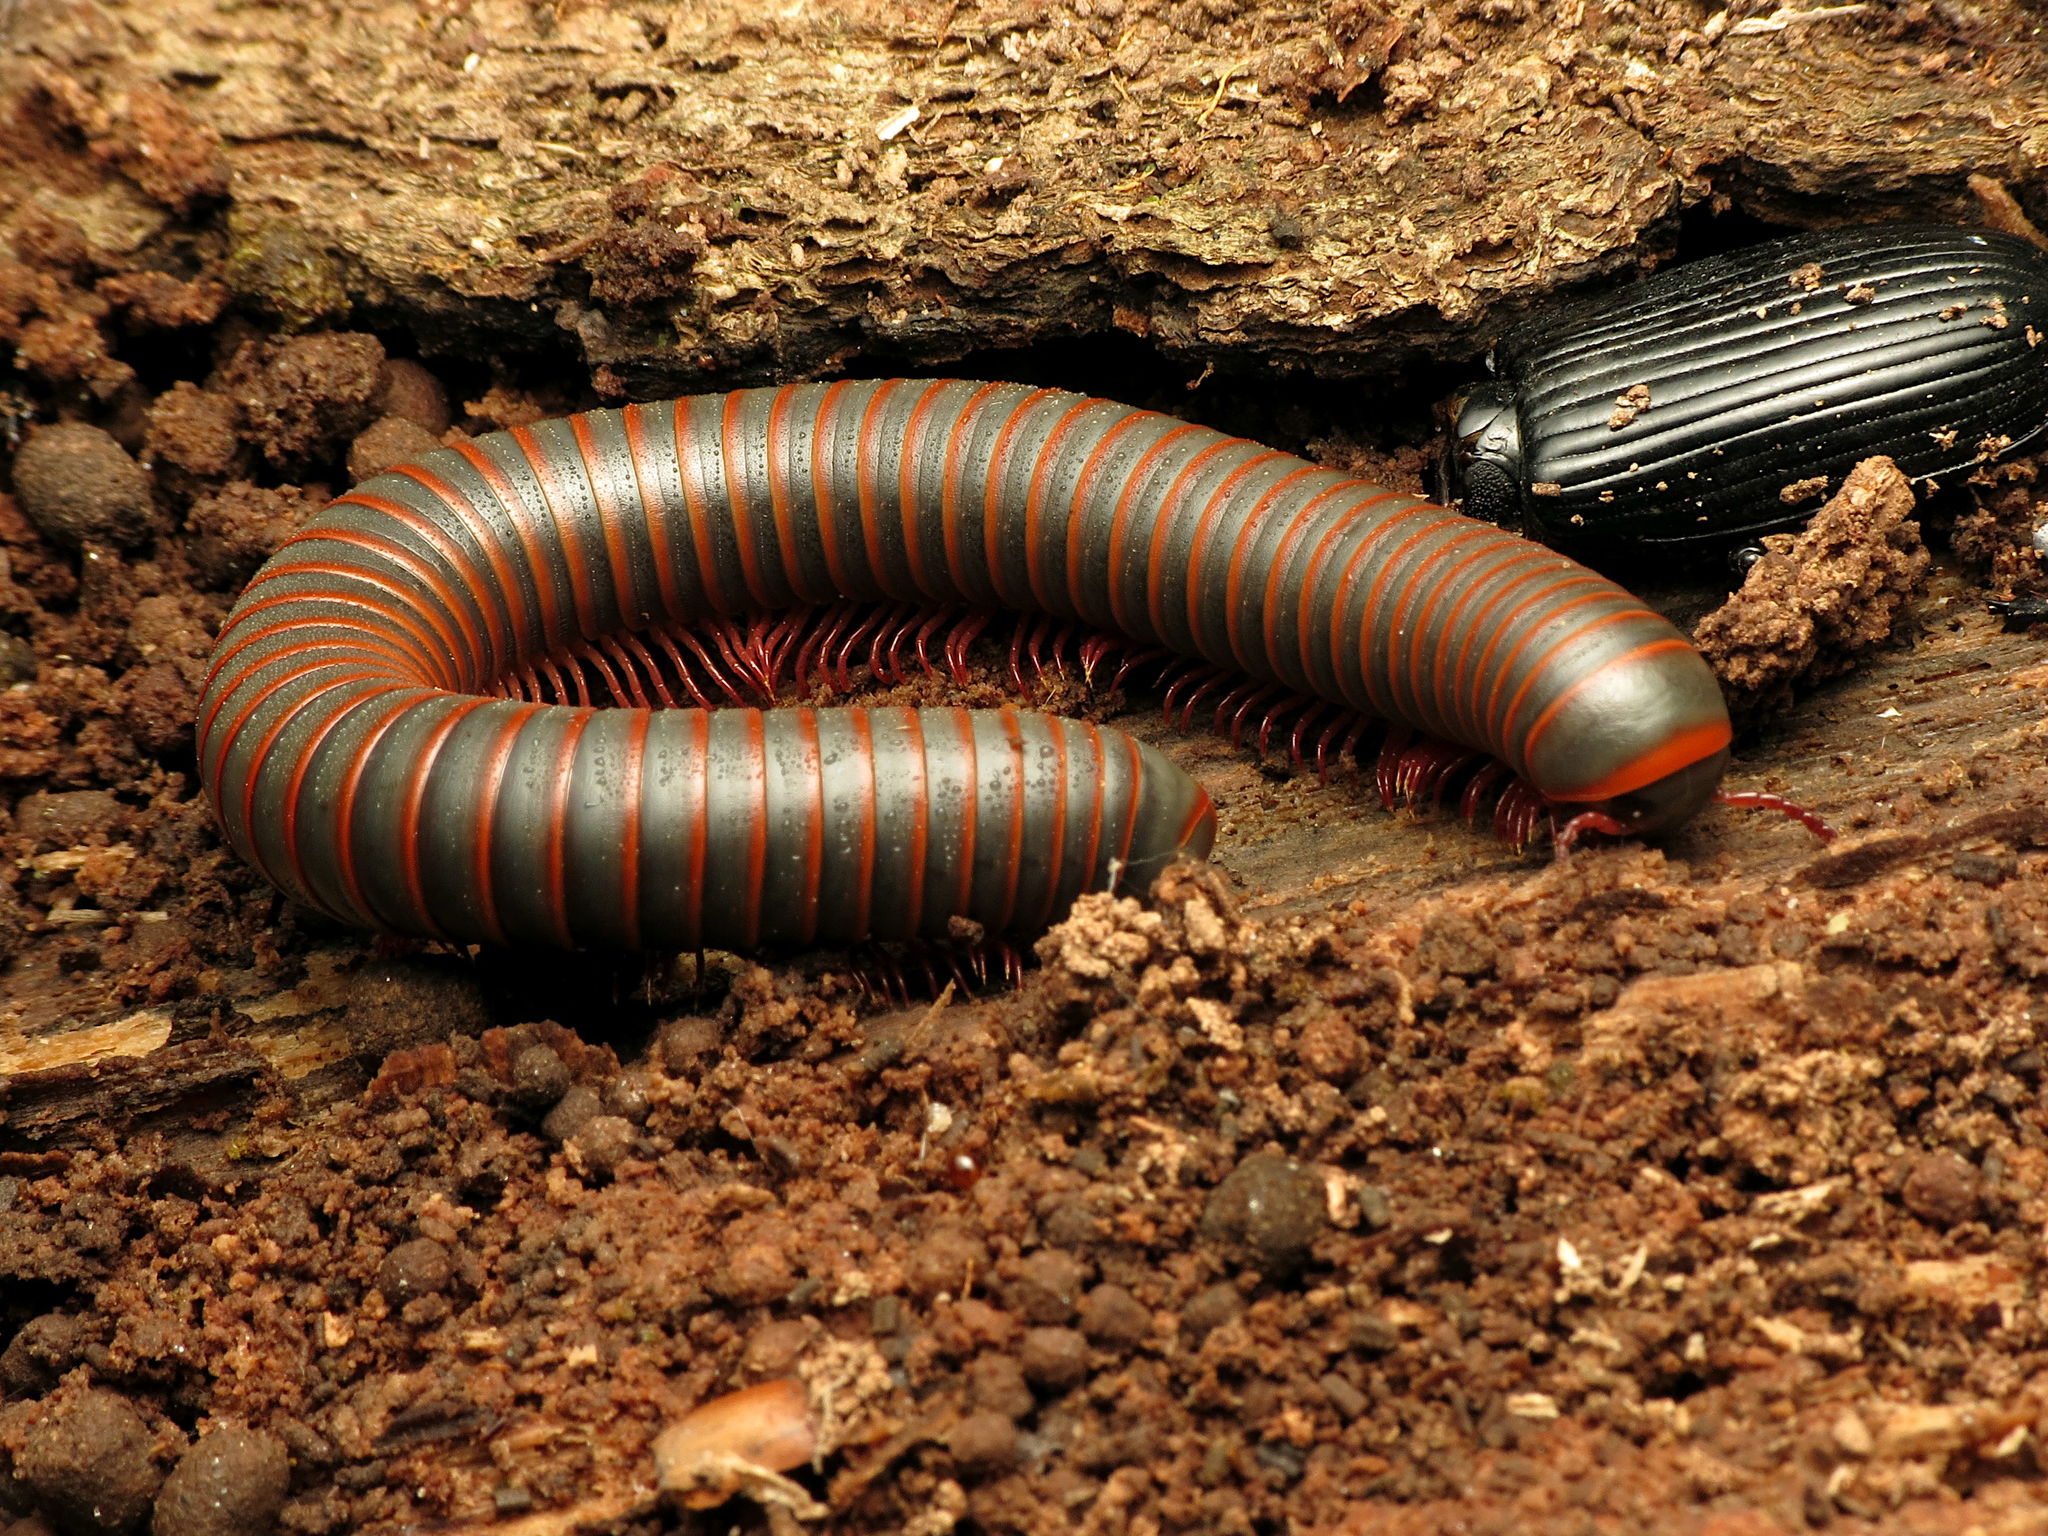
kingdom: Animalia
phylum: Arthropoda
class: Diplopoda
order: Spirobolida
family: Spirobolidae
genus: Narceus
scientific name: Narceus
